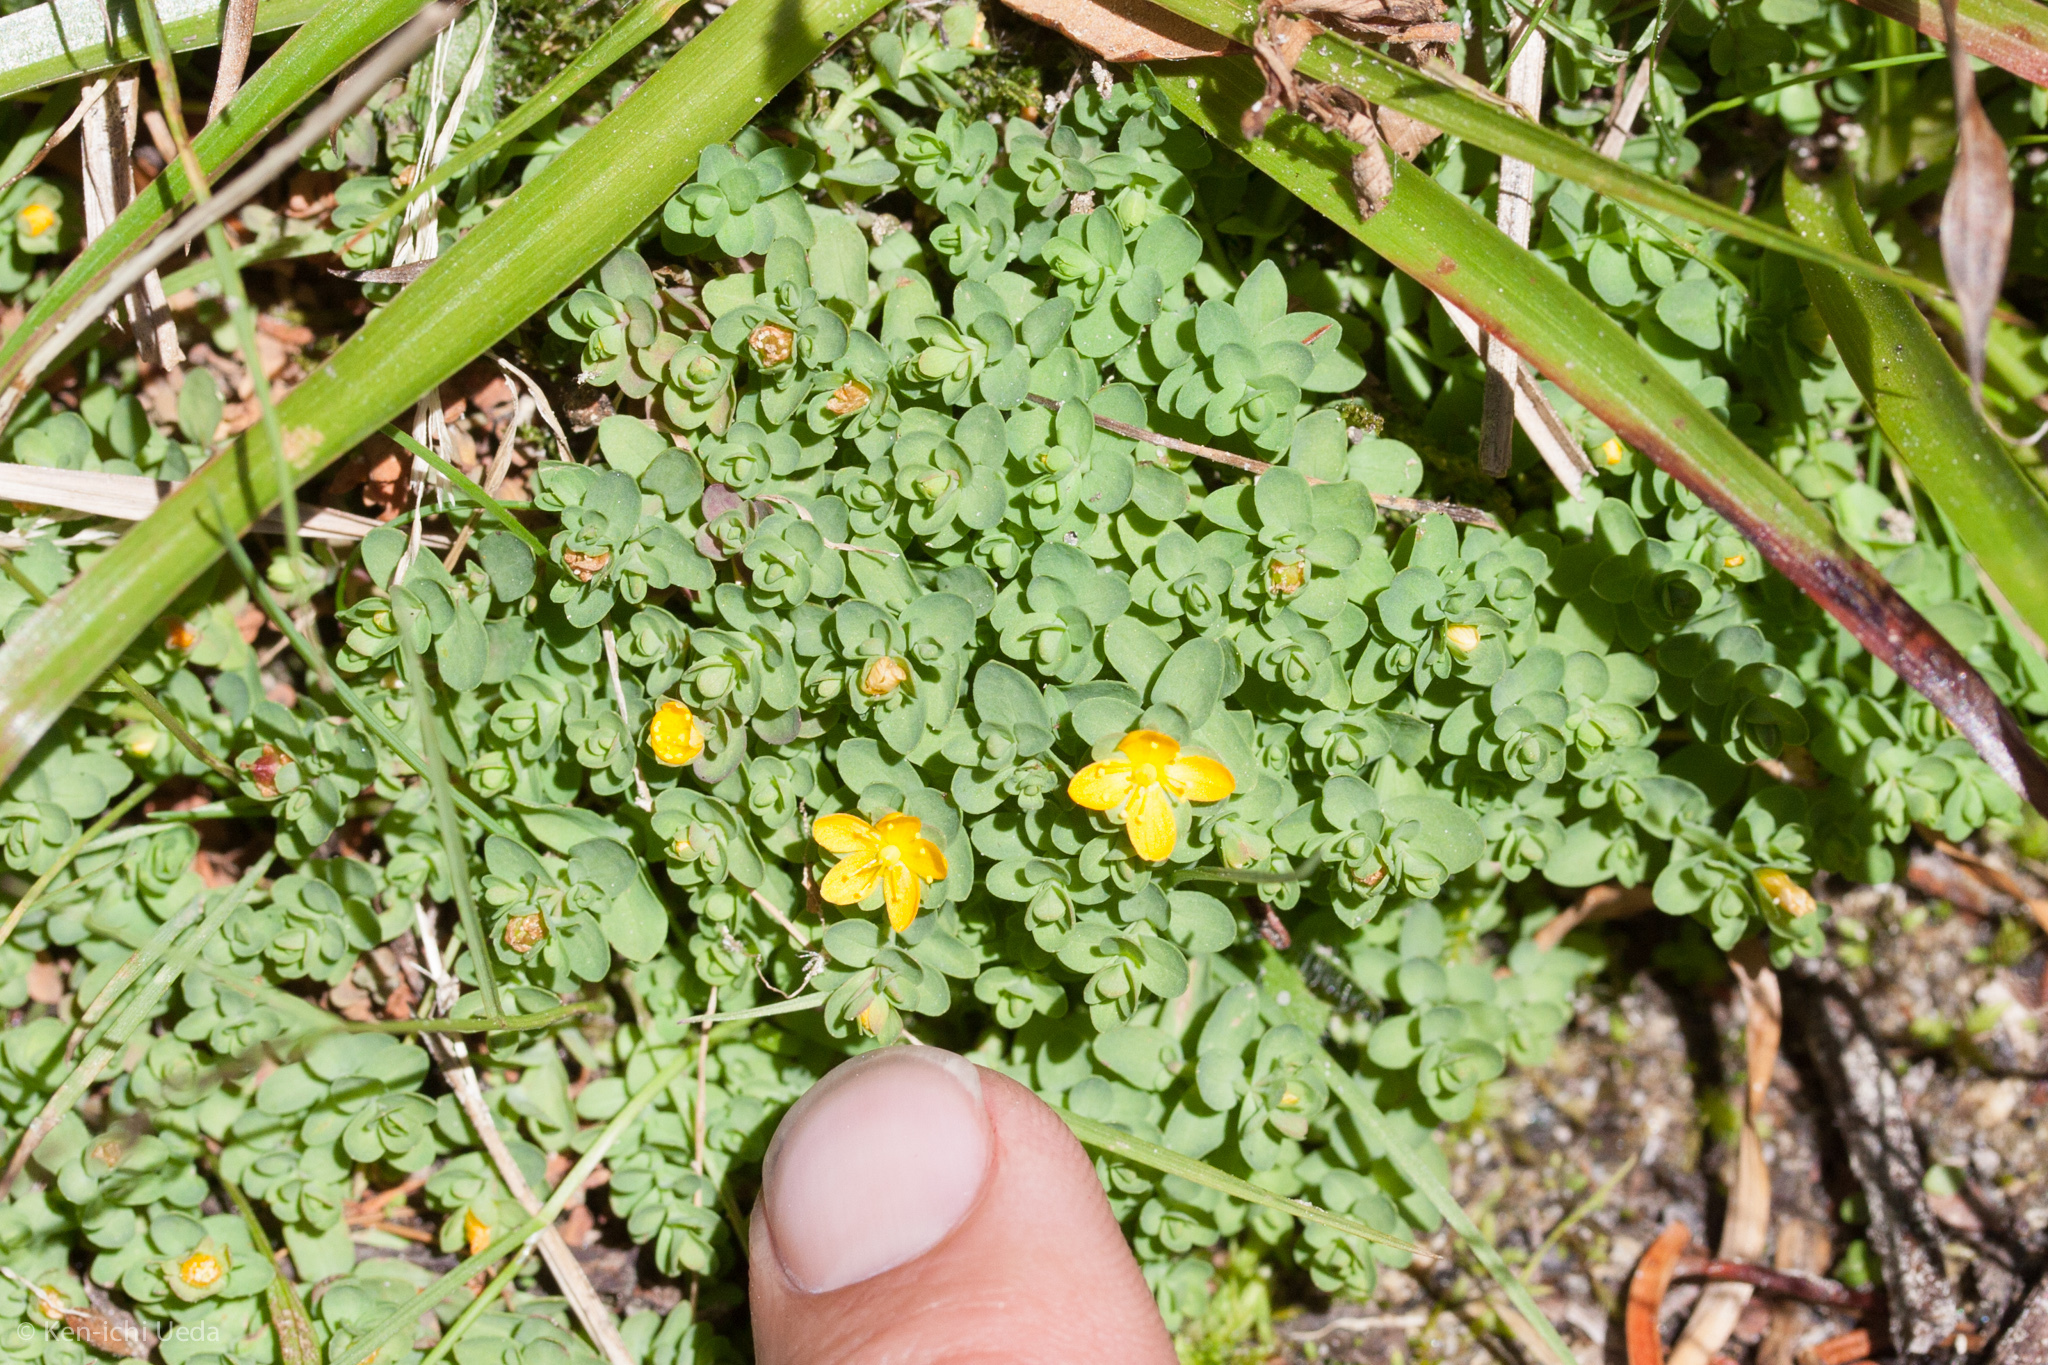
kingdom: Plantae
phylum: Tracheophyta
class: Magnoliopsida
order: Malpighiales
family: Hypericaceae
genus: Hypericum
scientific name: Hypericum anagalloides
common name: Bog st. john's-wort
